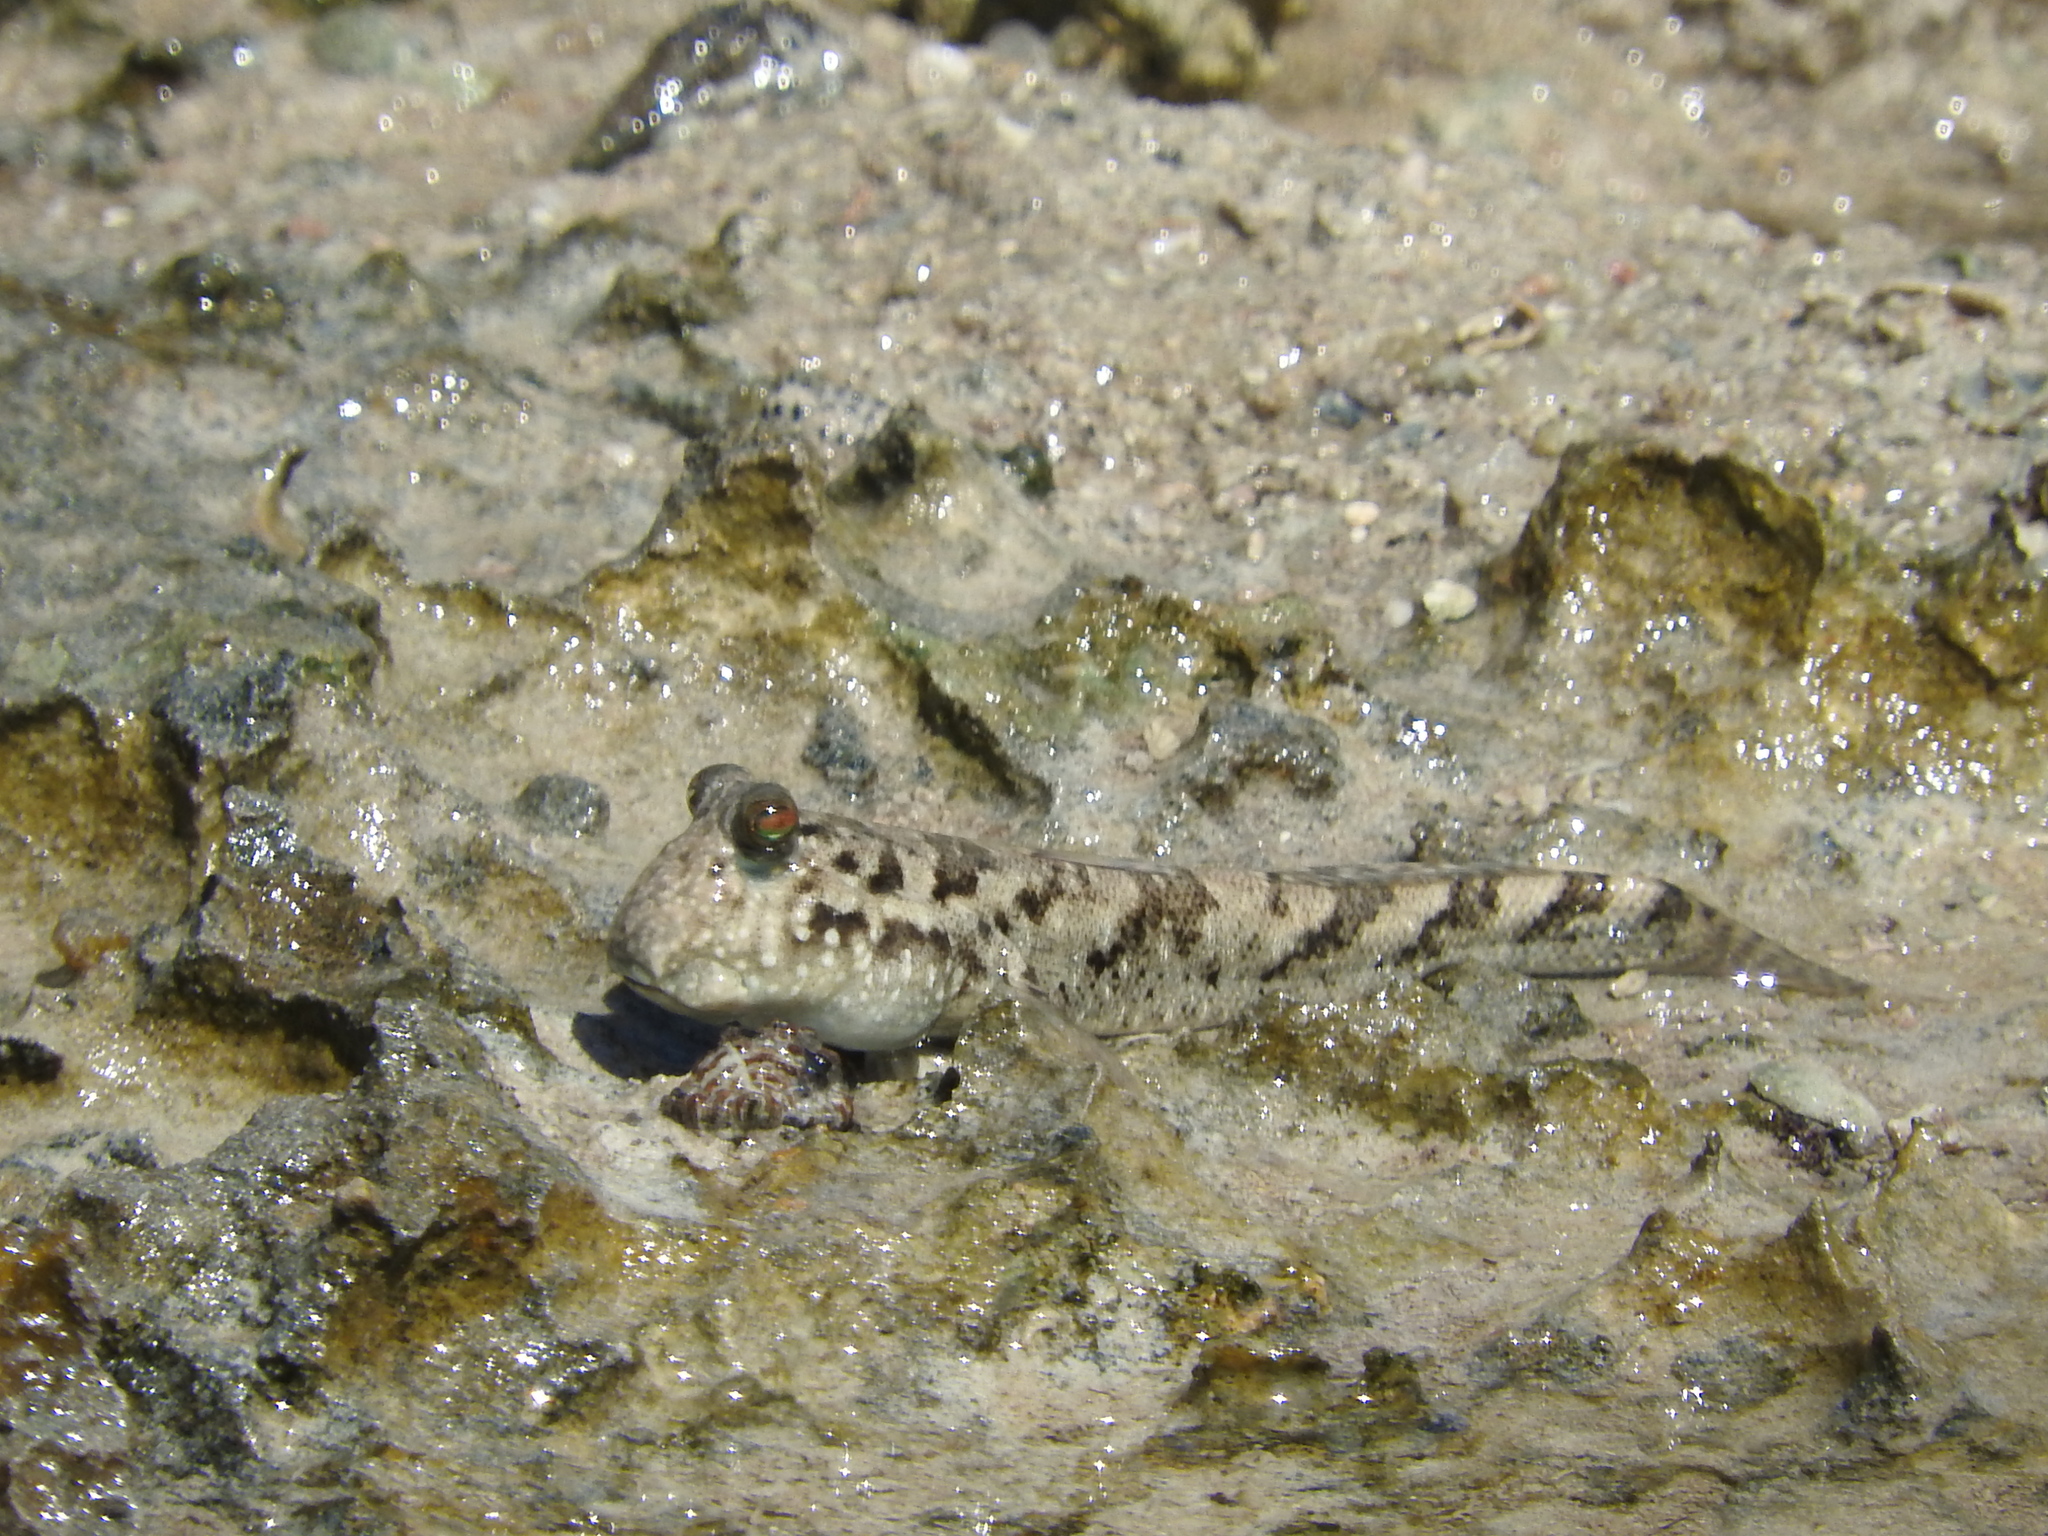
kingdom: Animalia
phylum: Chordata
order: Perciformes
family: Gobiidae
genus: Periophthalmus
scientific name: Periophthalmus kalolo
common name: African mudhopper
